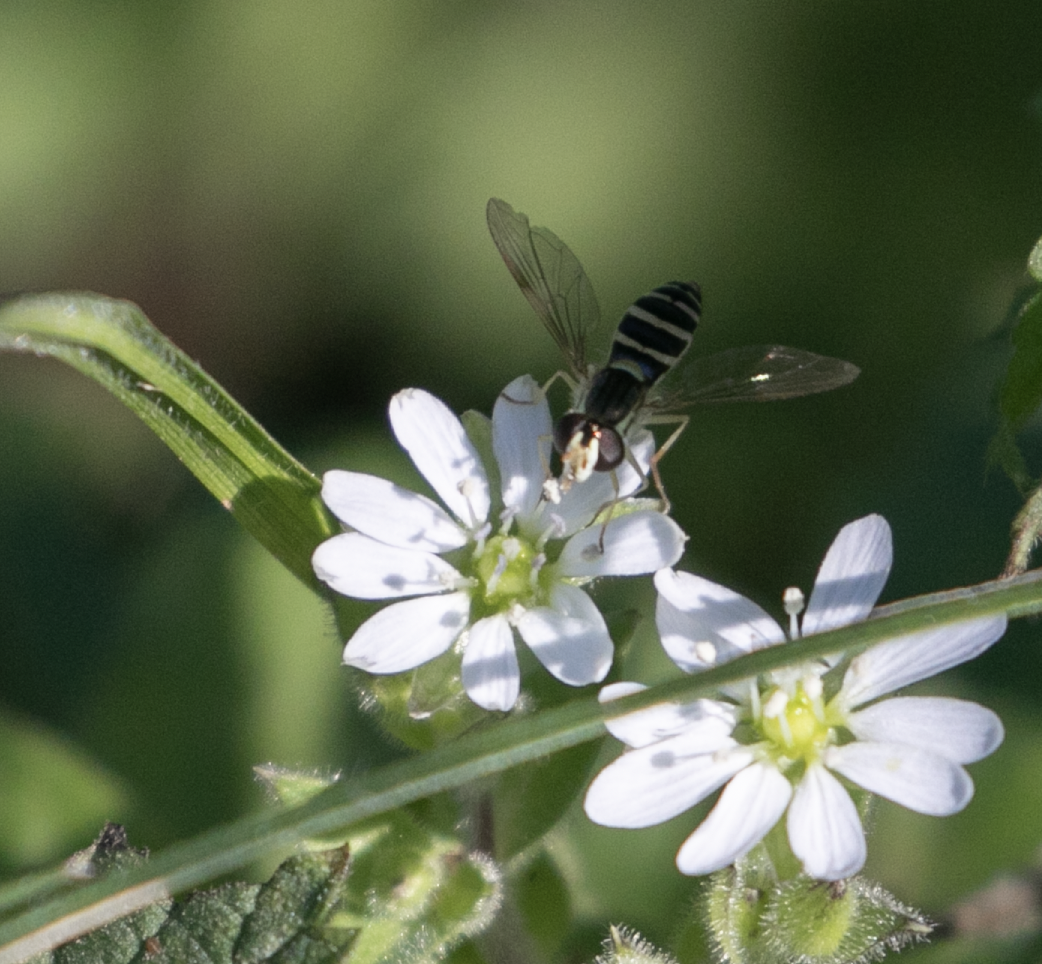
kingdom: Animalia
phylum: Arthropoda
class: Insecta
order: Diptera
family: Syrphidae
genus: Sphaerophoria
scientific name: Sphaerophoria
